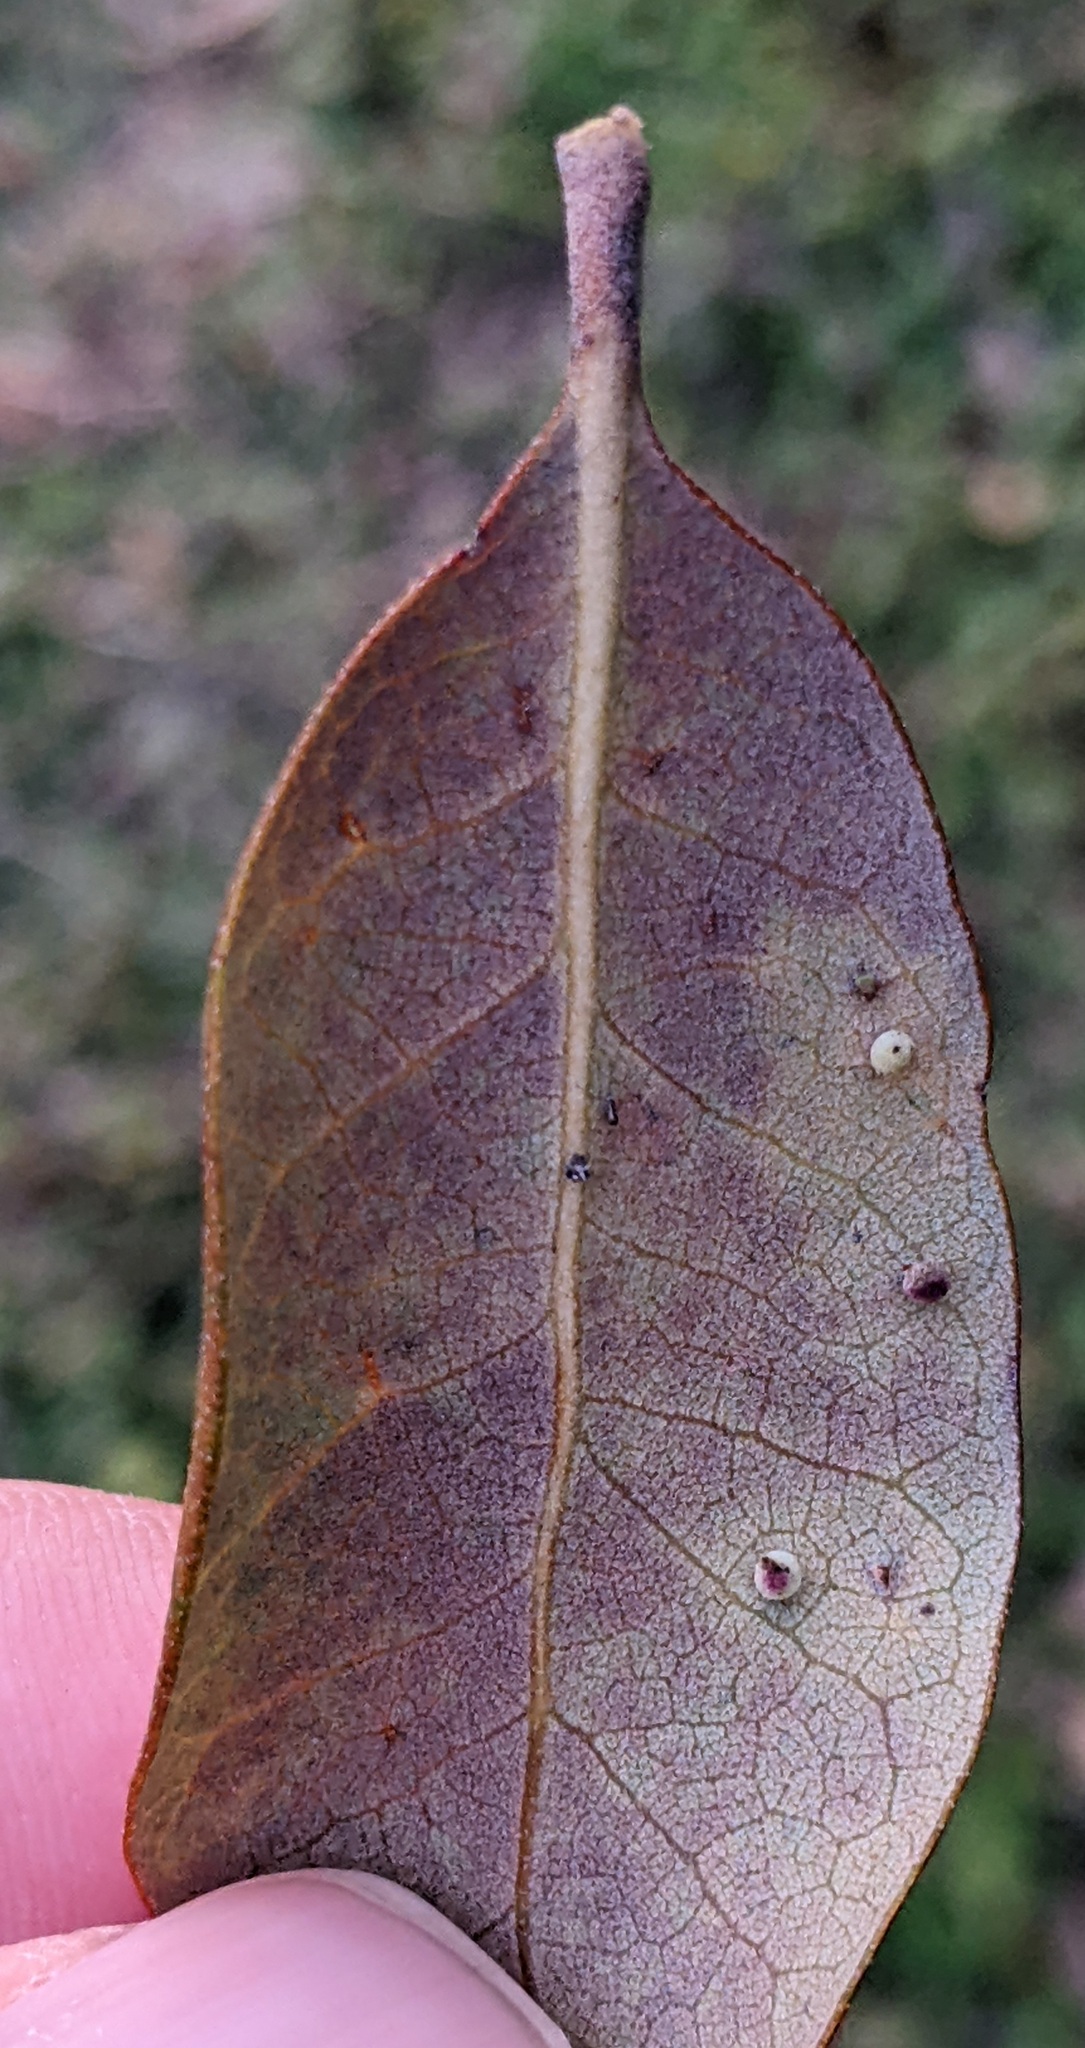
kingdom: Animalia
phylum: Arthropoda
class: Insecta
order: Hymenoptera
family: Cynipidae
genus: Neuroterus
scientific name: Neuroterus saltarius
